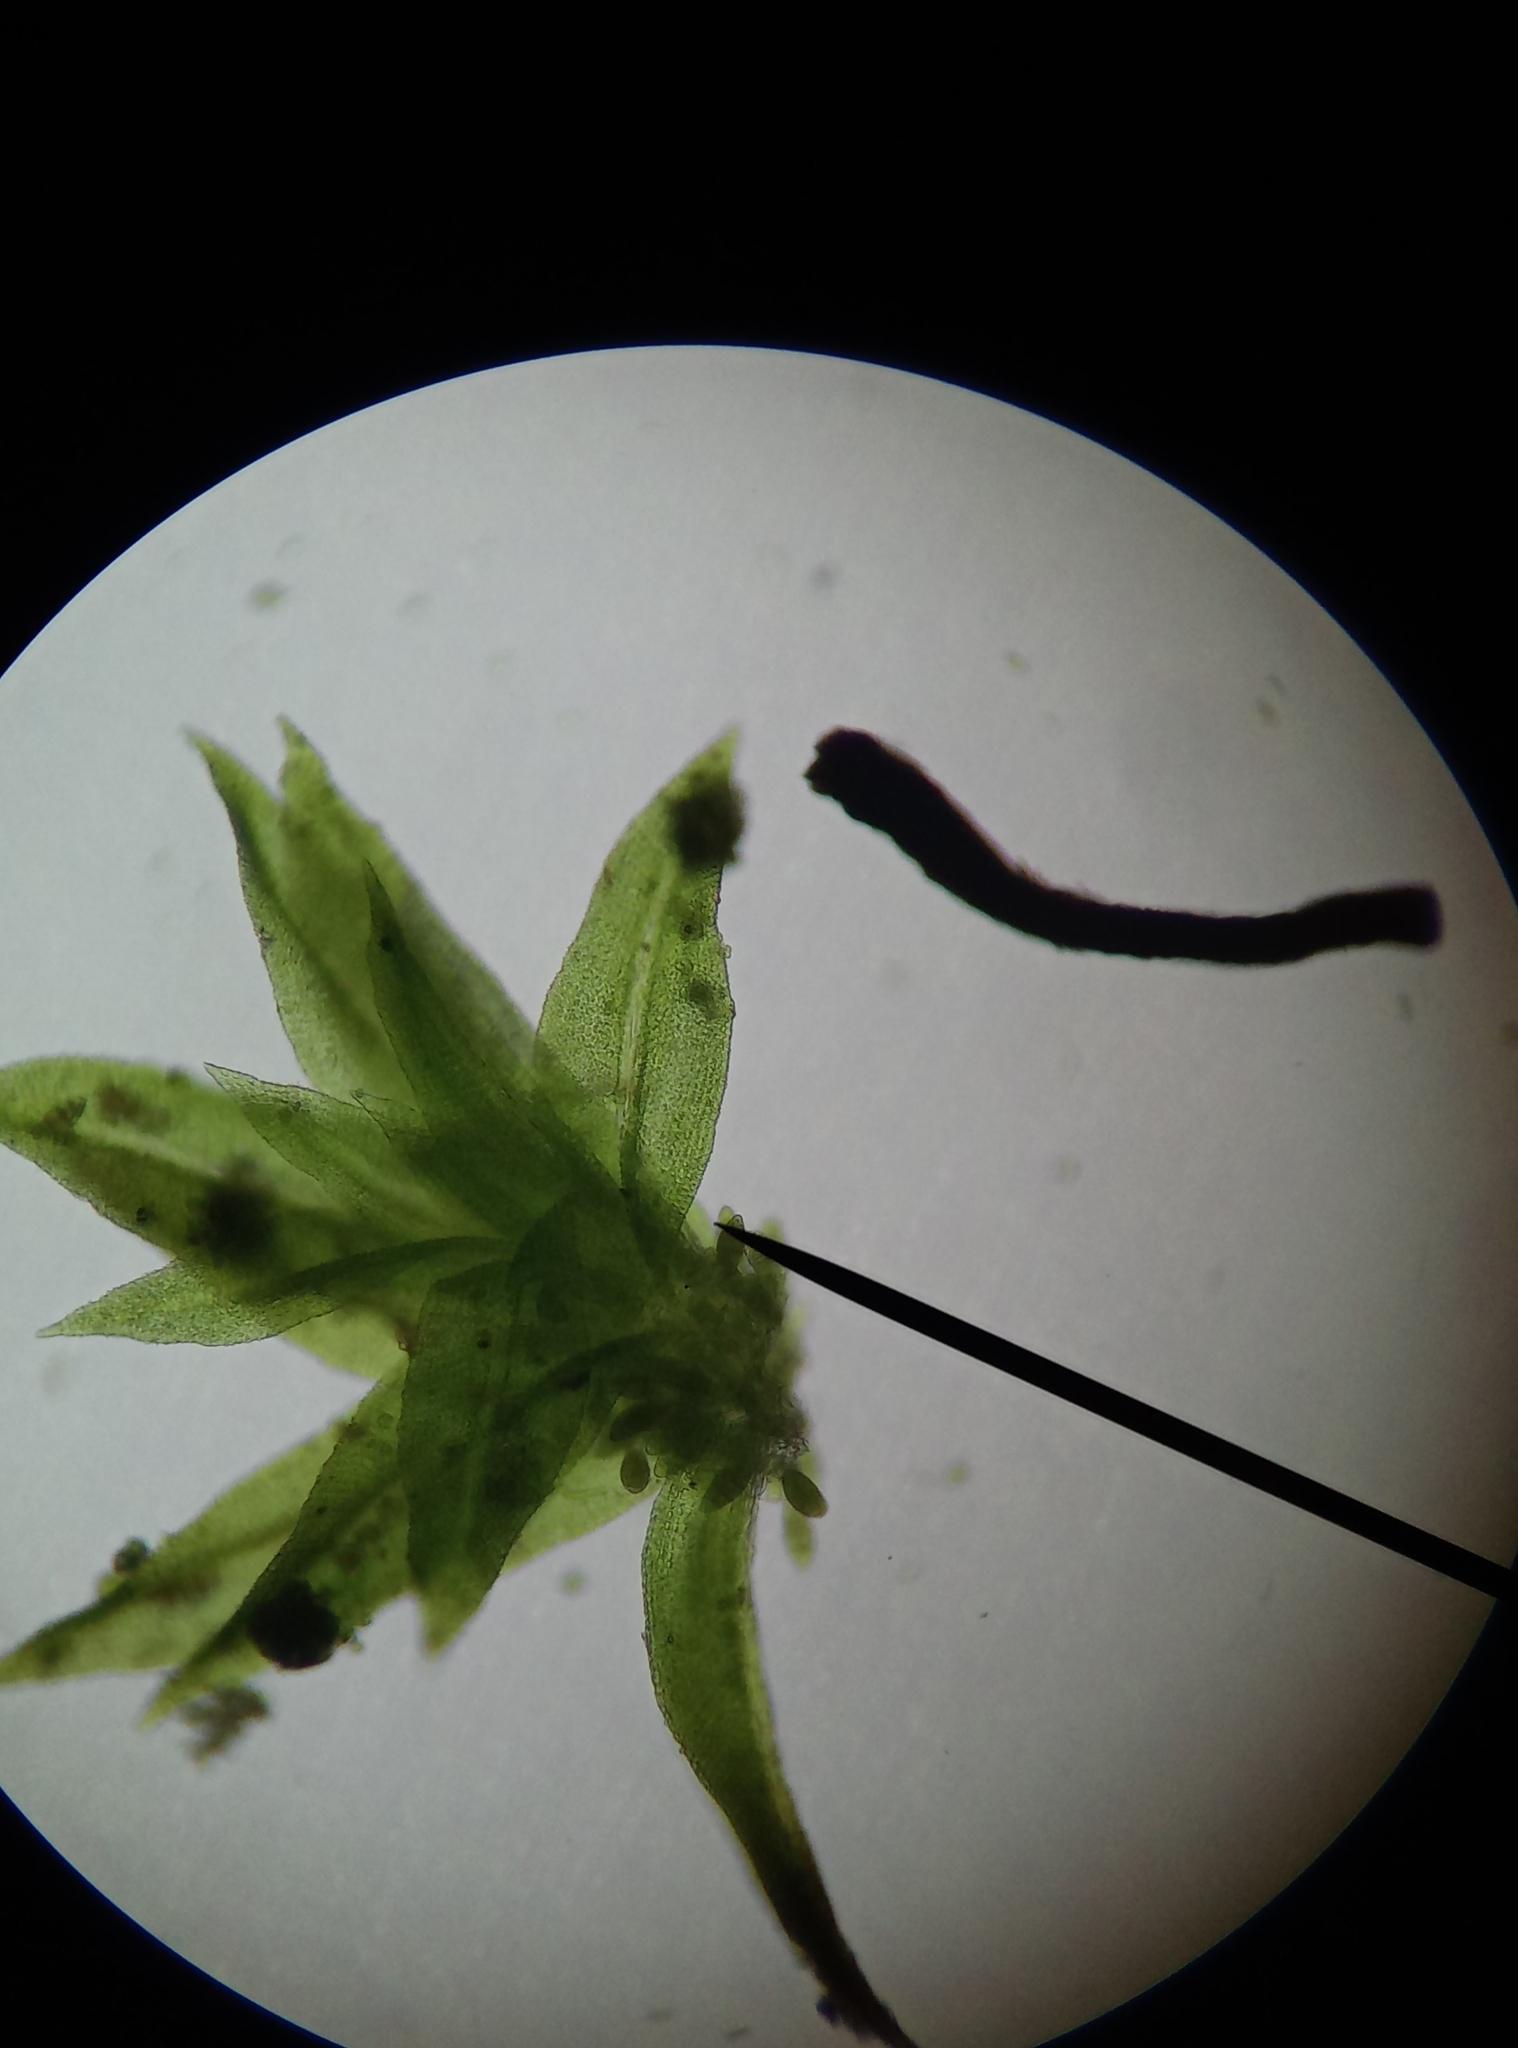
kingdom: Plantae
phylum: Bryophyta
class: Bryopsida
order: Orthotrichales
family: Orthotrichaceae
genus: Zygodon
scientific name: Zygodon viridissimus
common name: Green yoke moss
